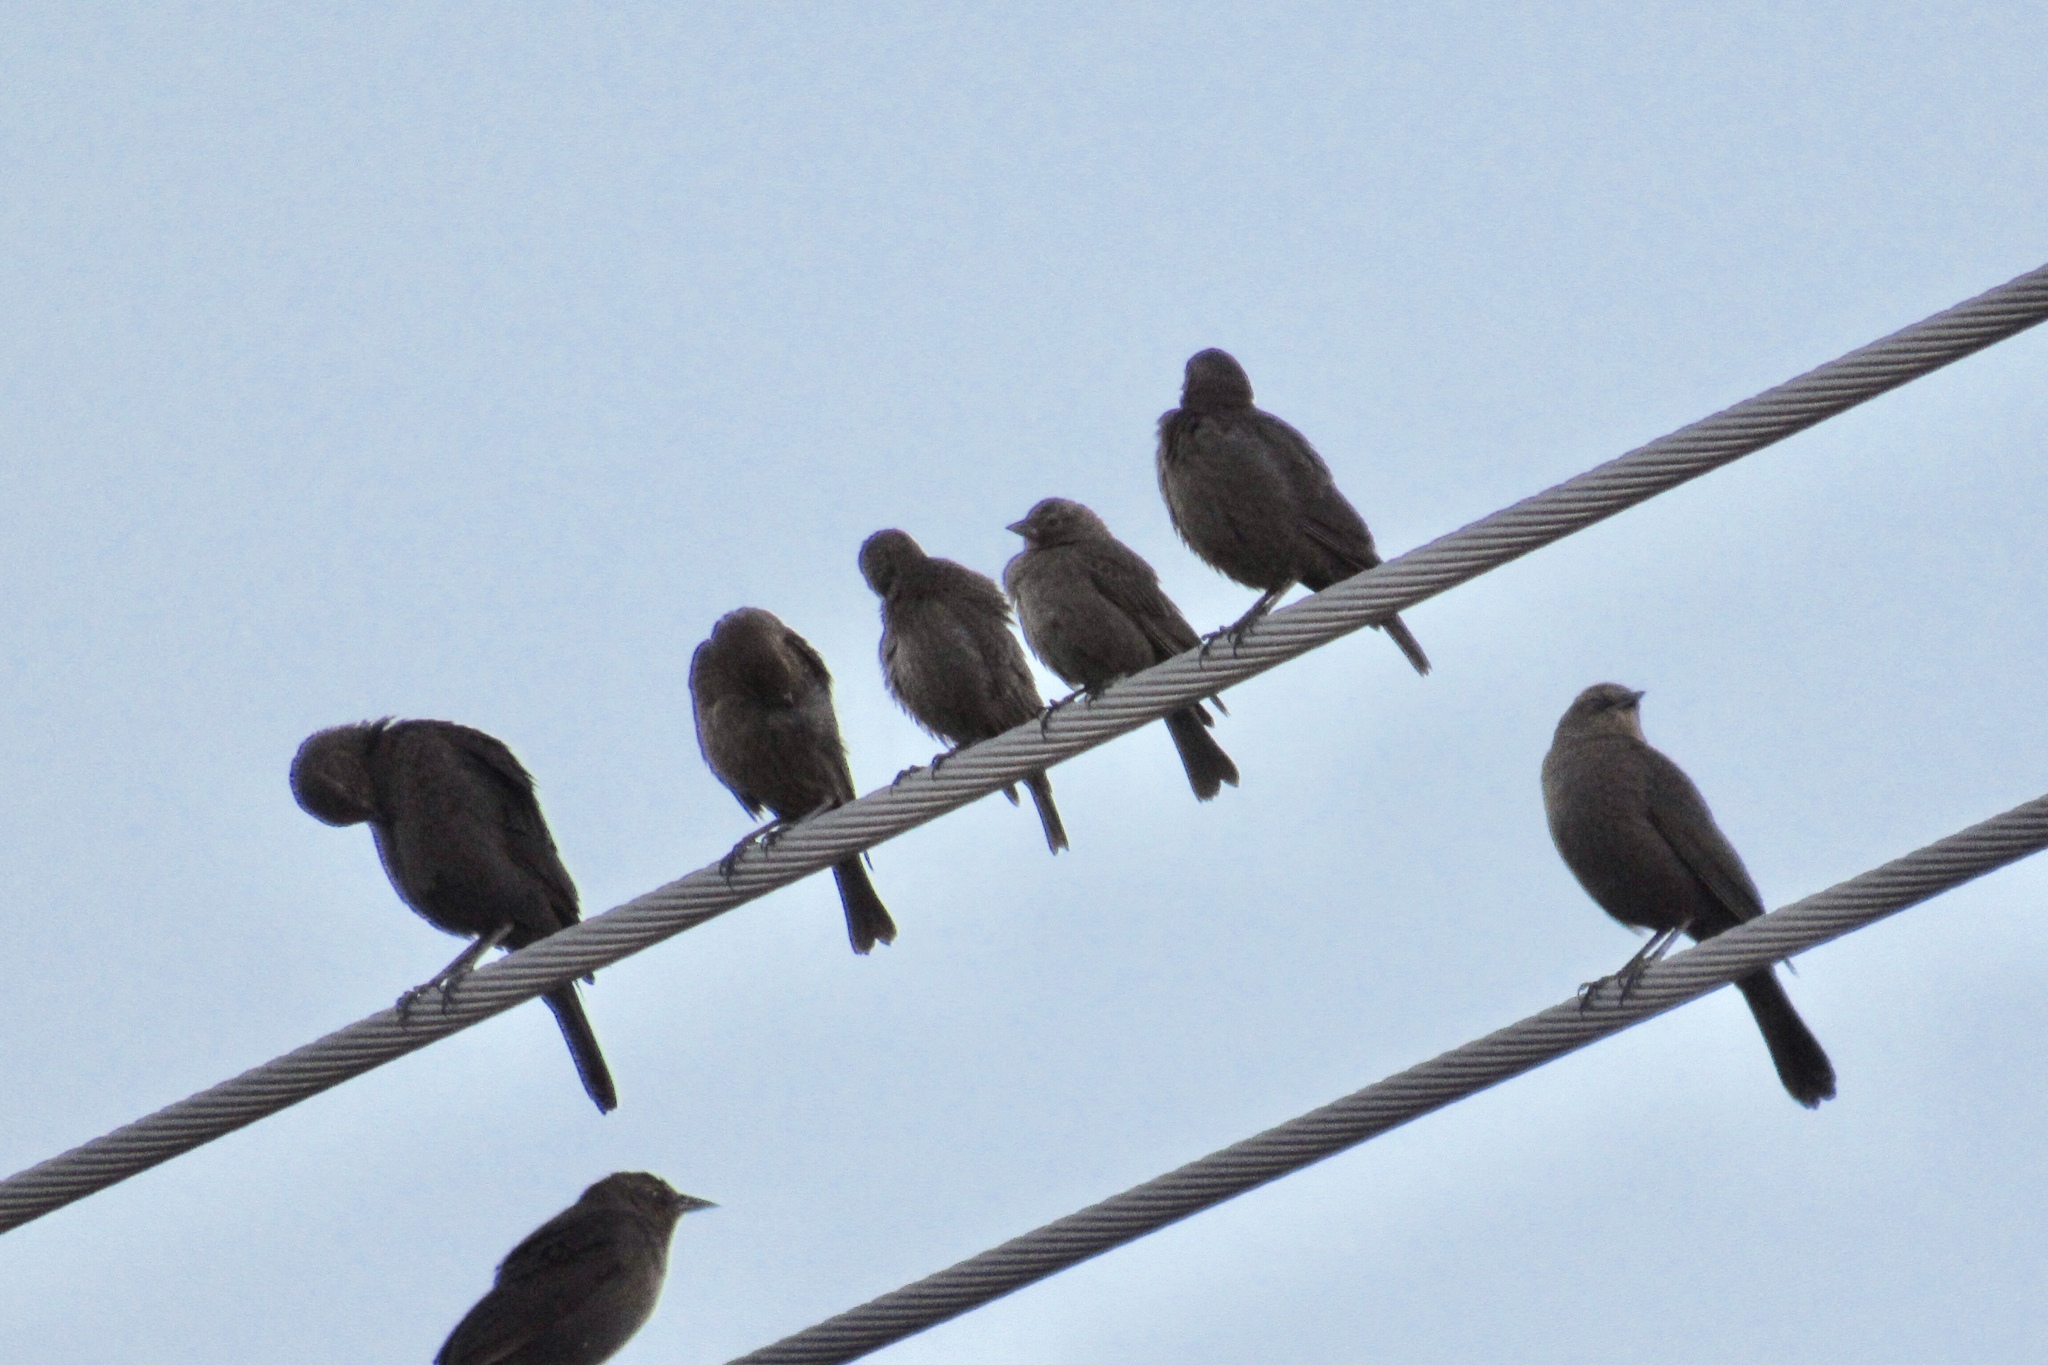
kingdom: Animalia
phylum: Chordata
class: Aves
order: Passeriformes
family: Icteridae
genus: Molothrus
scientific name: Molothrus ater
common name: Brown-headed cowbird
